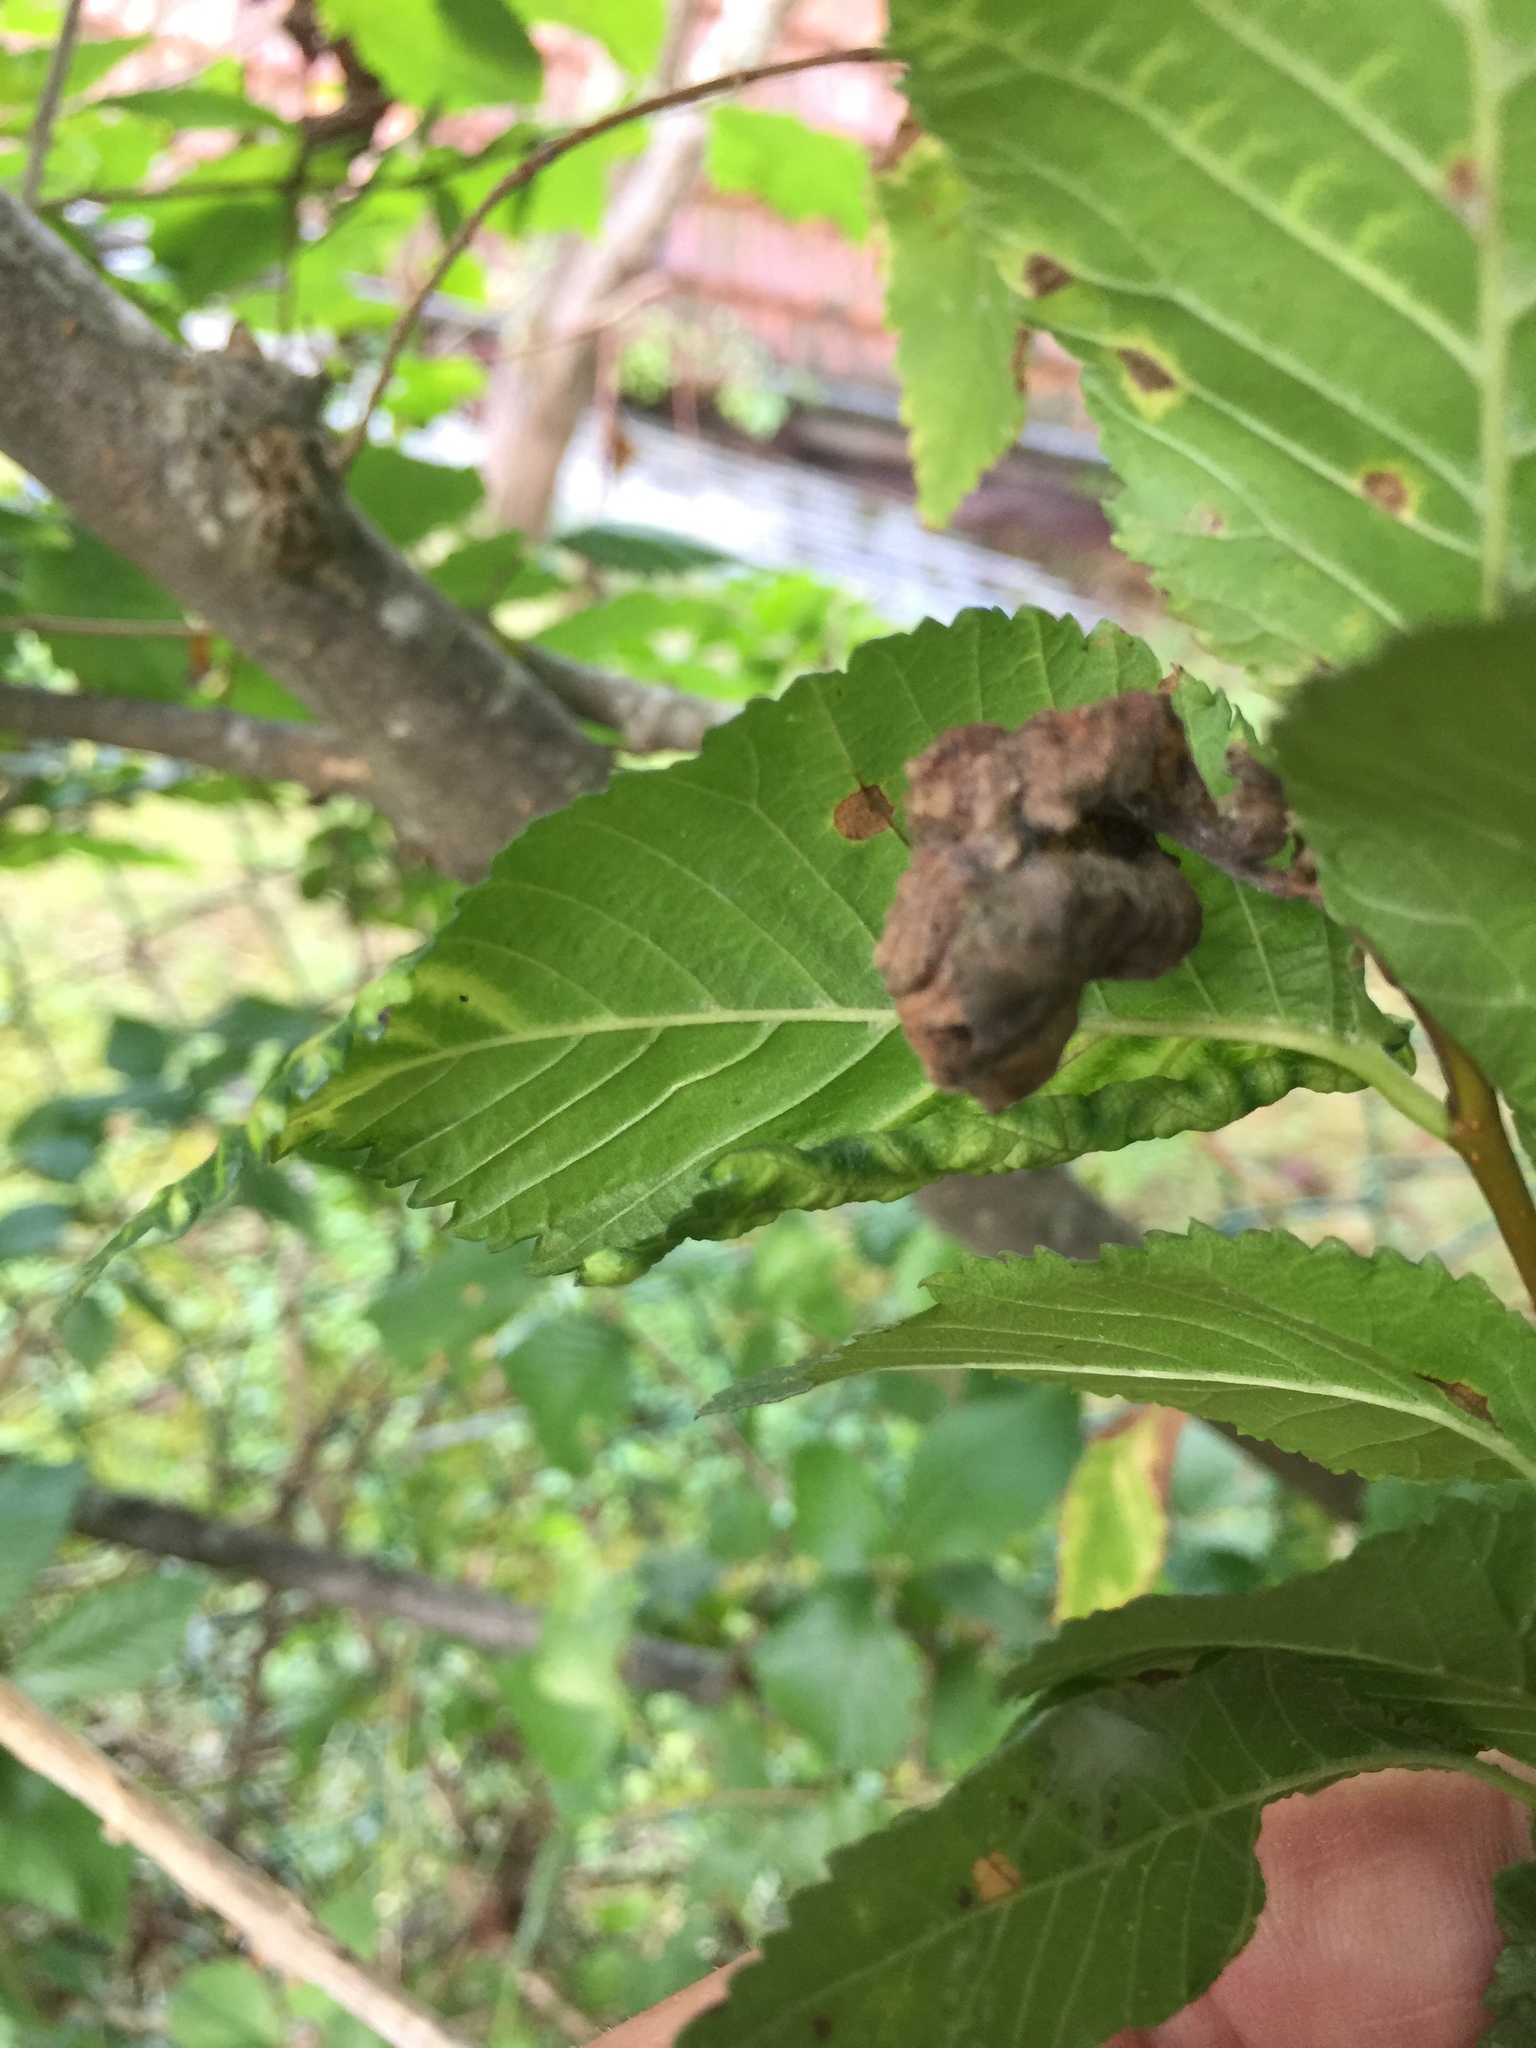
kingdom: Animalia
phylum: Arthropoda
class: Insecta
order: Hemiptera
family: Aphididae
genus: Eriosoma
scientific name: Eriosoma ulmi
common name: Woolly aphids
